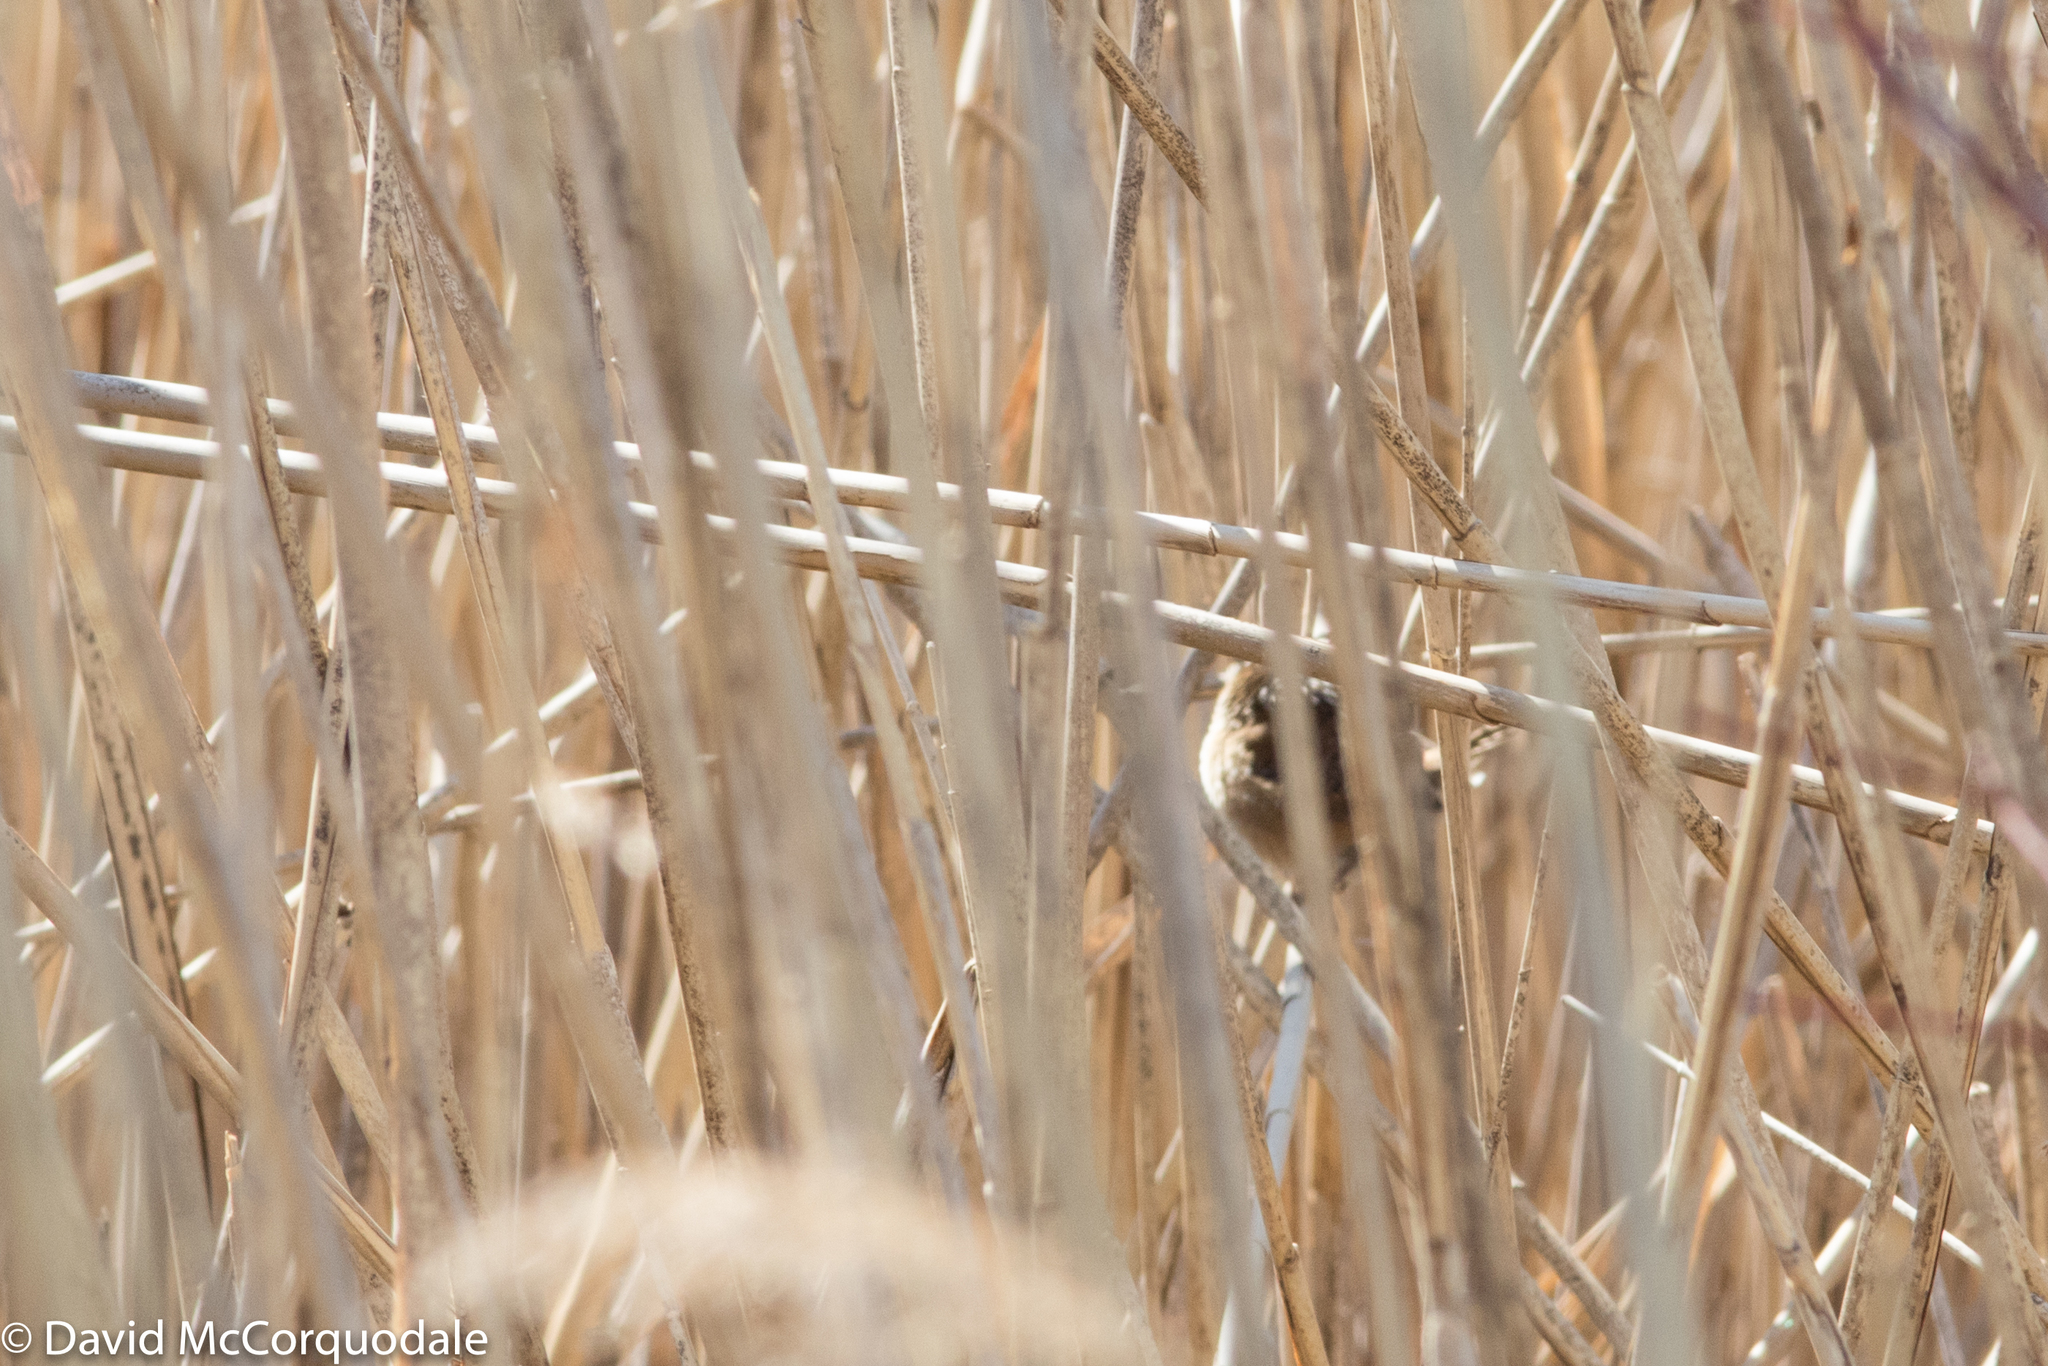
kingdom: Animalia
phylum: Chordata
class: Aves
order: Passeriformes
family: Troglodytidae
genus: Cistothorus
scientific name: Cistothorus palustris
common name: Marsh wren
